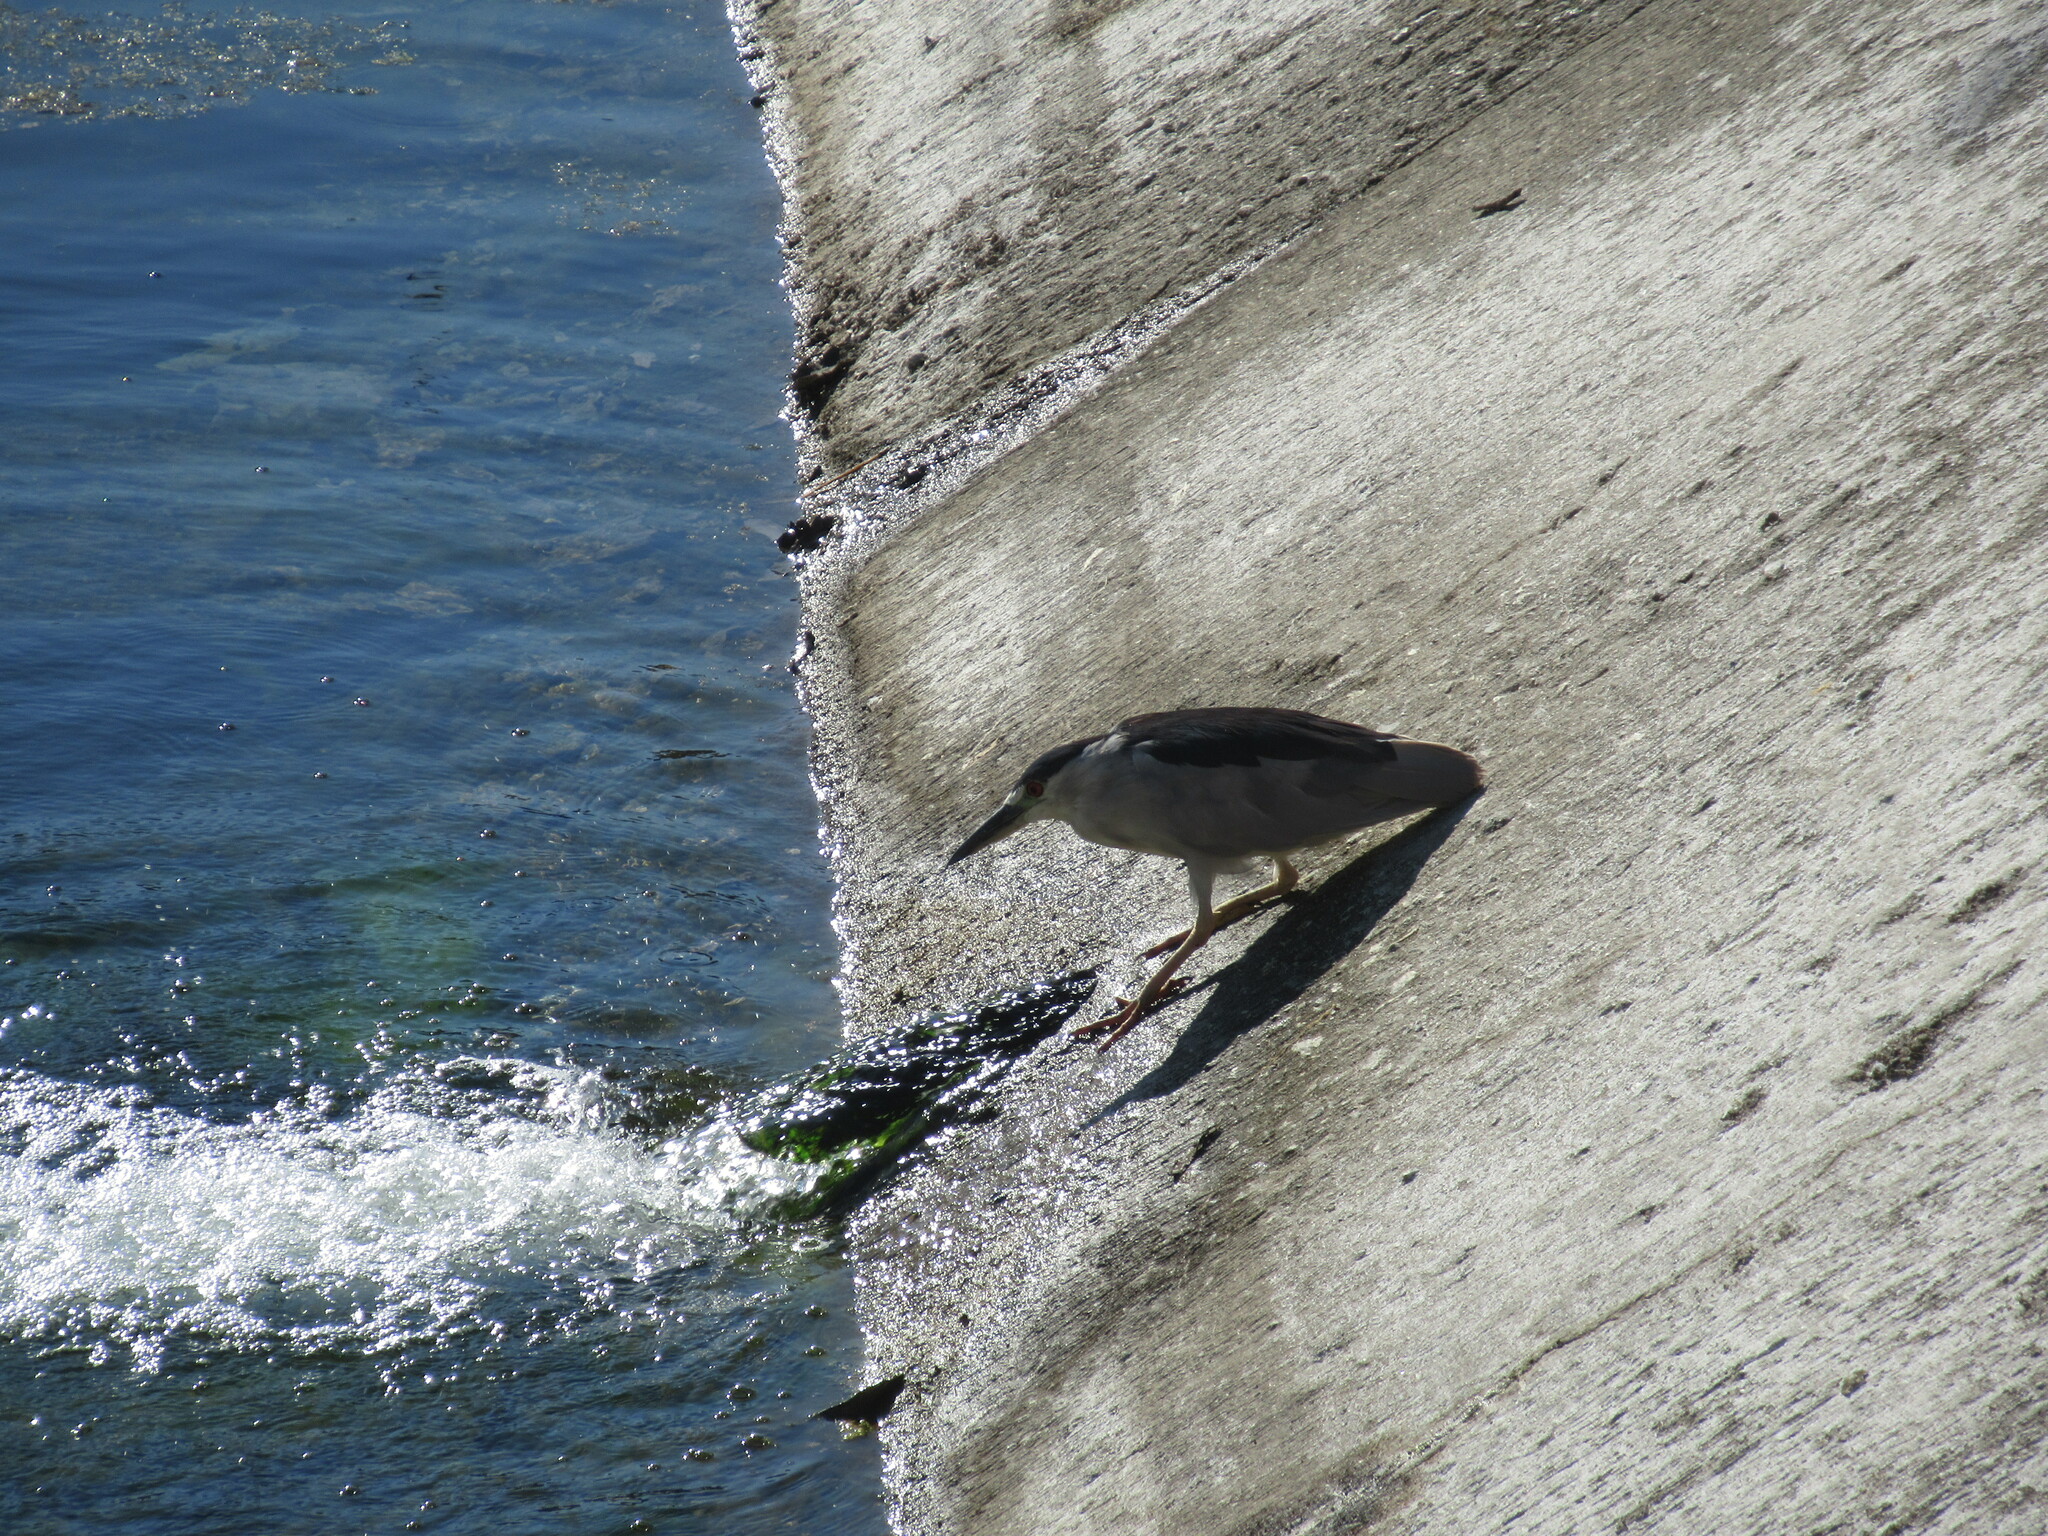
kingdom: Animalia
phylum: Chordata
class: Aves
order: Pelecaniformes
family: Ardeidae
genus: Nycticorax
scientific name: Nycticorax nycticorax
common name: Black-crowned night heron
